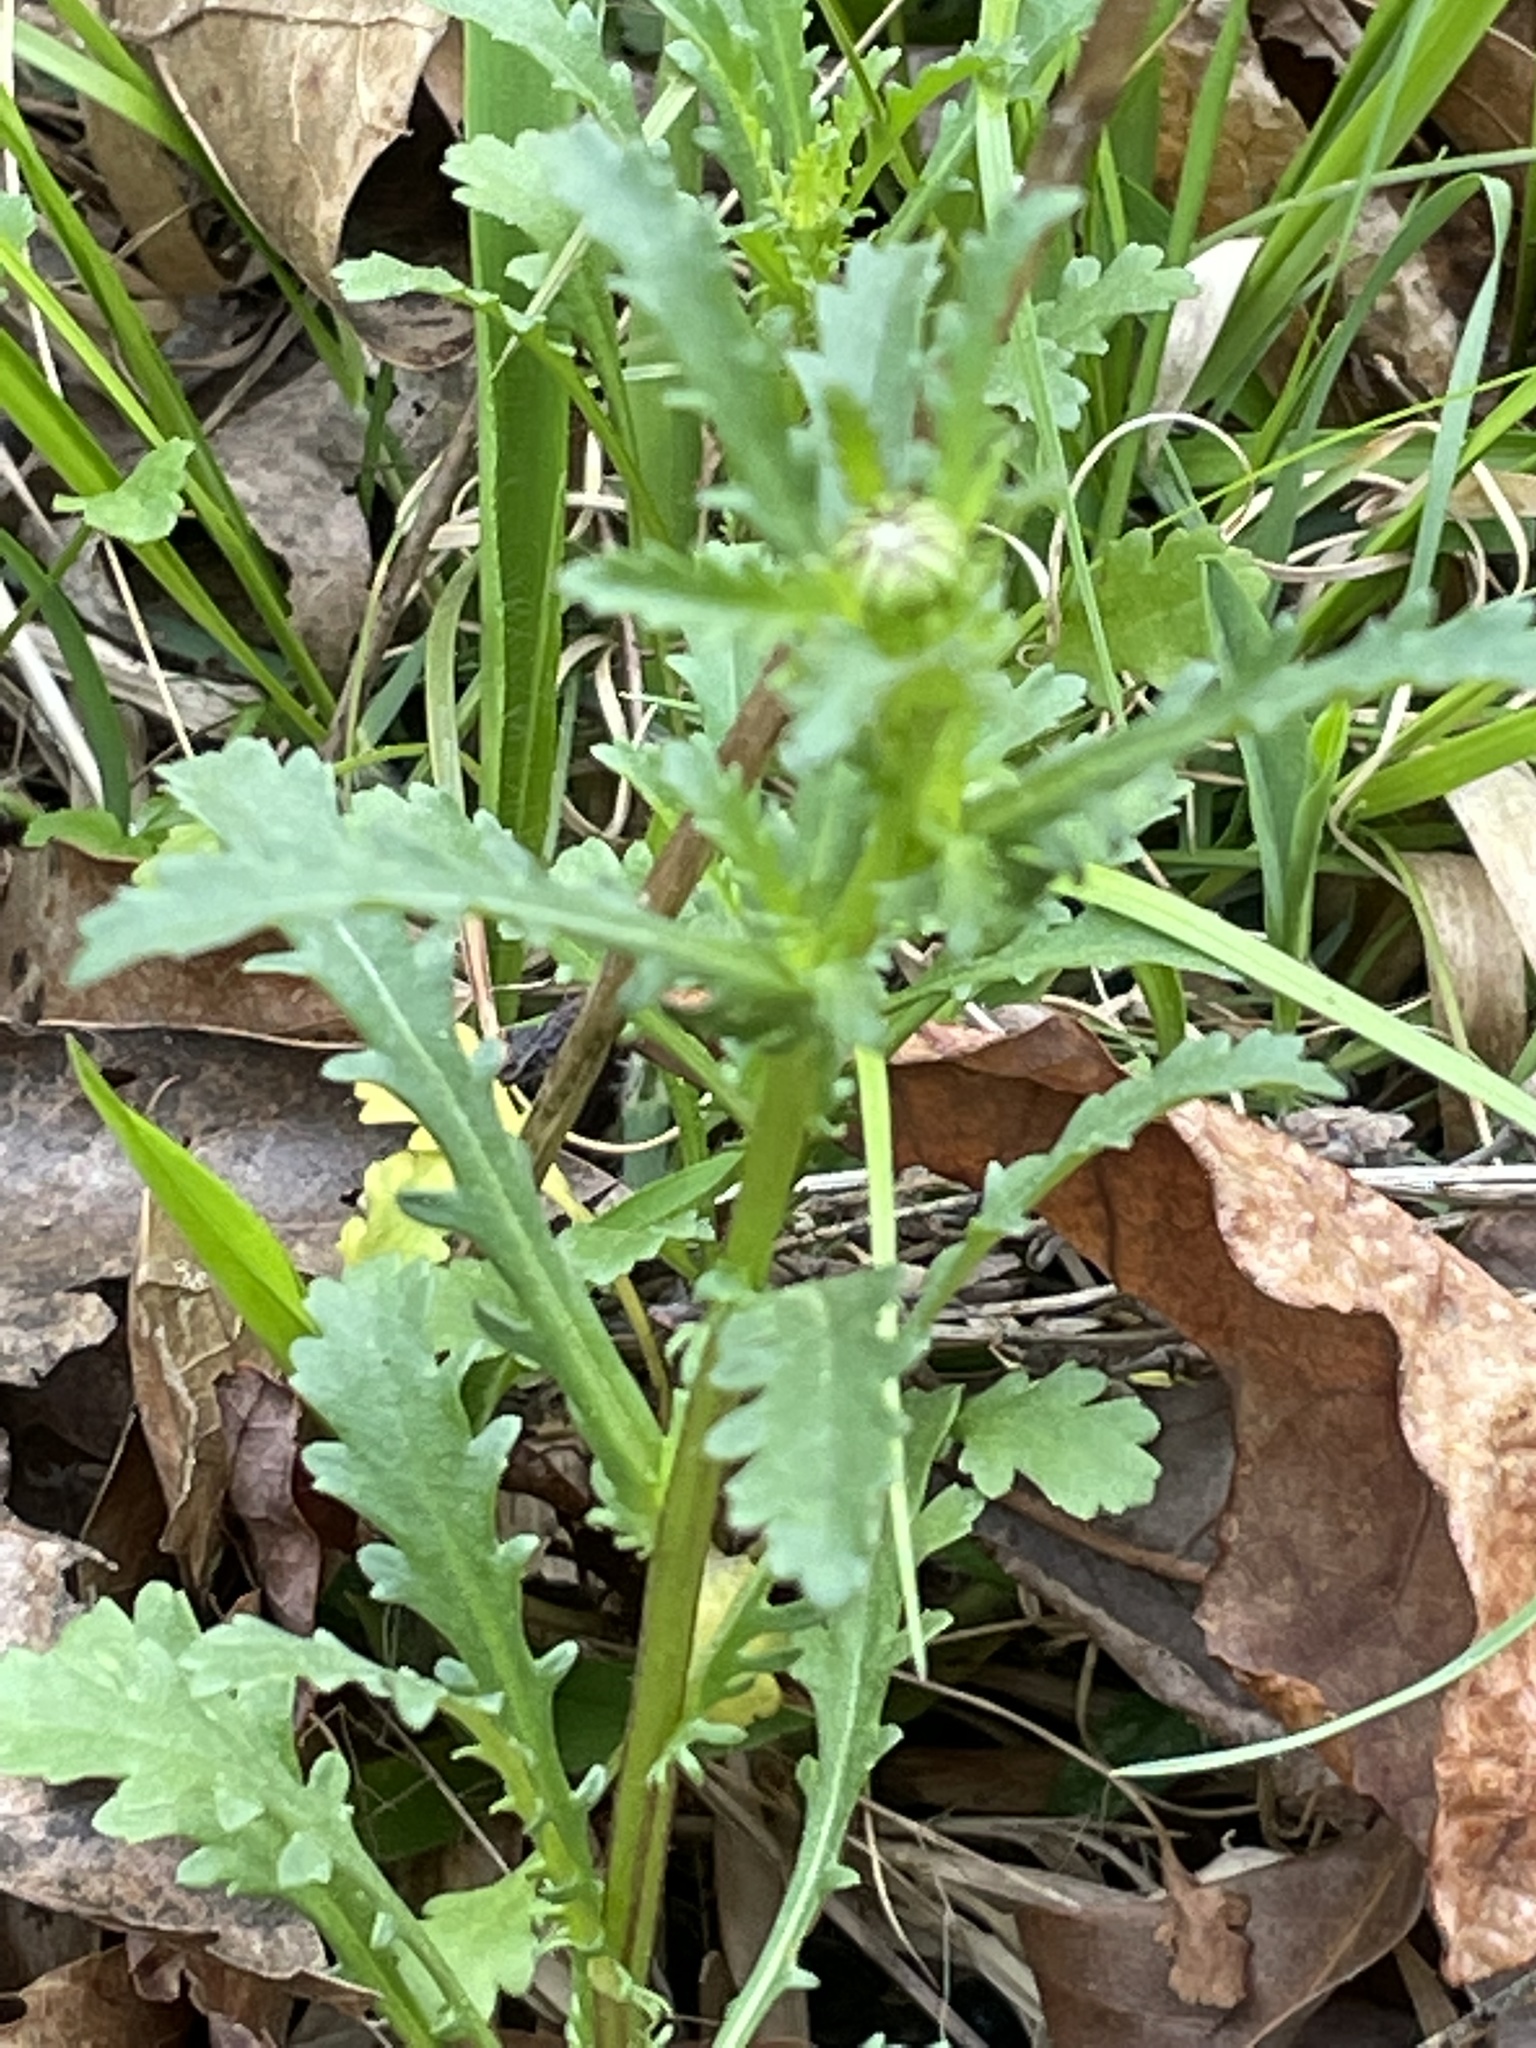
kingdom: Plantae
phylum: Tracheophyta
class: Magnoliopsida
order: Asterales
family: Asteraceae
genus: Leucanthemum
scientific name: Leucanthemum vulgare
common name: Oxeye daisy
